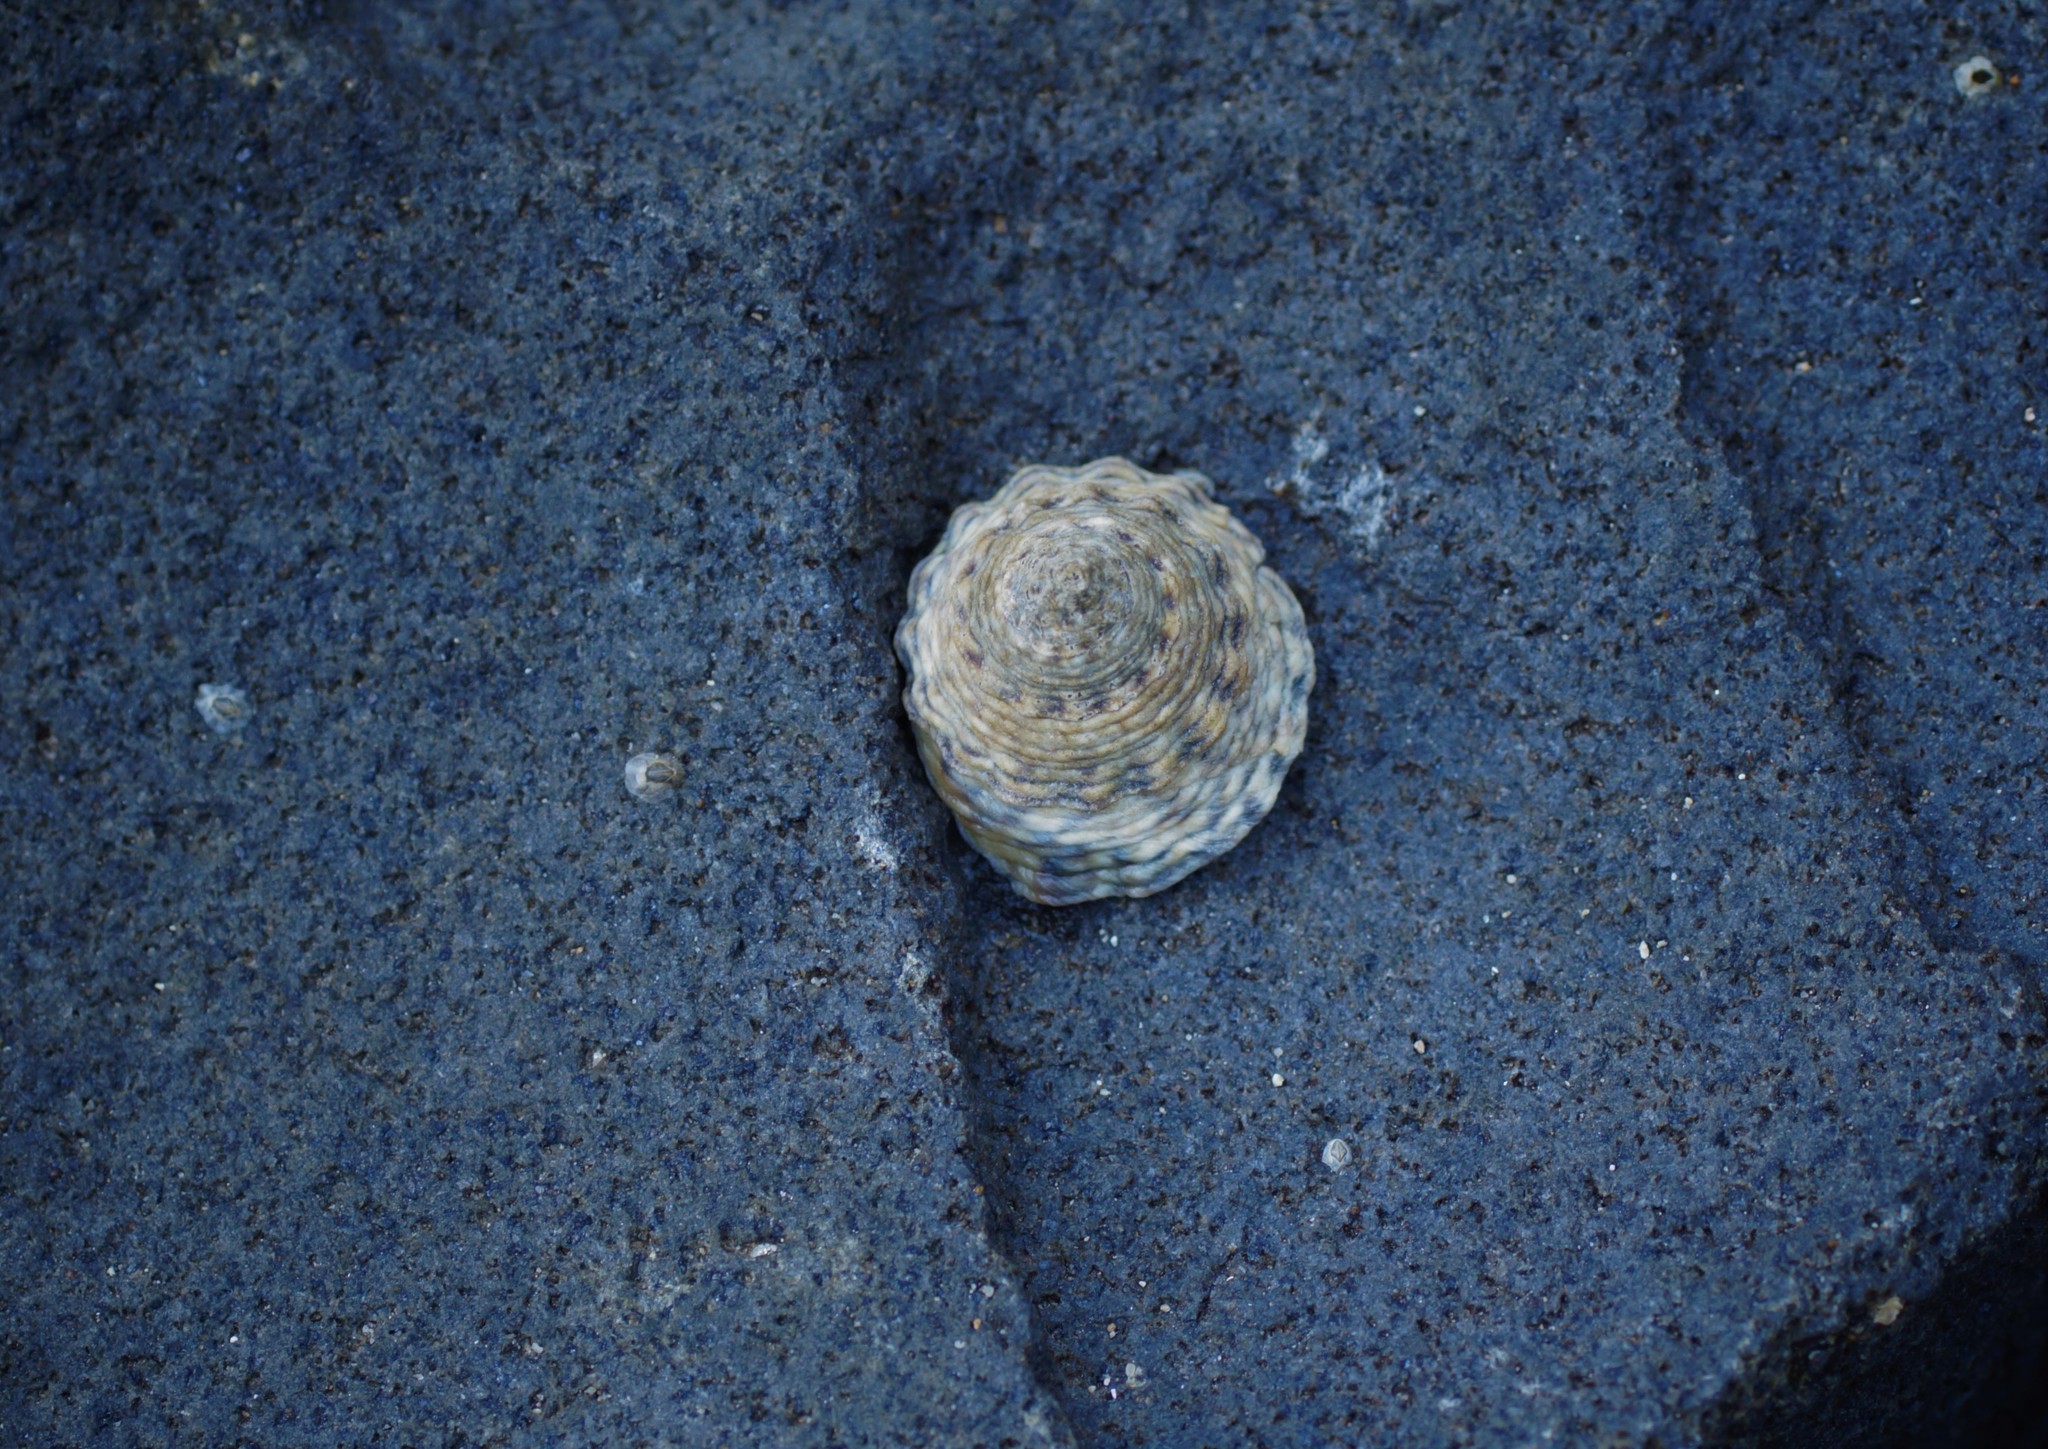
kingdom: Animalia
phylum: Mollusca
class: Gastropoda
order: Littorinimorpha
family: Littorinidae
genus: Bembicium
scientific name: Bembicium vittatum
